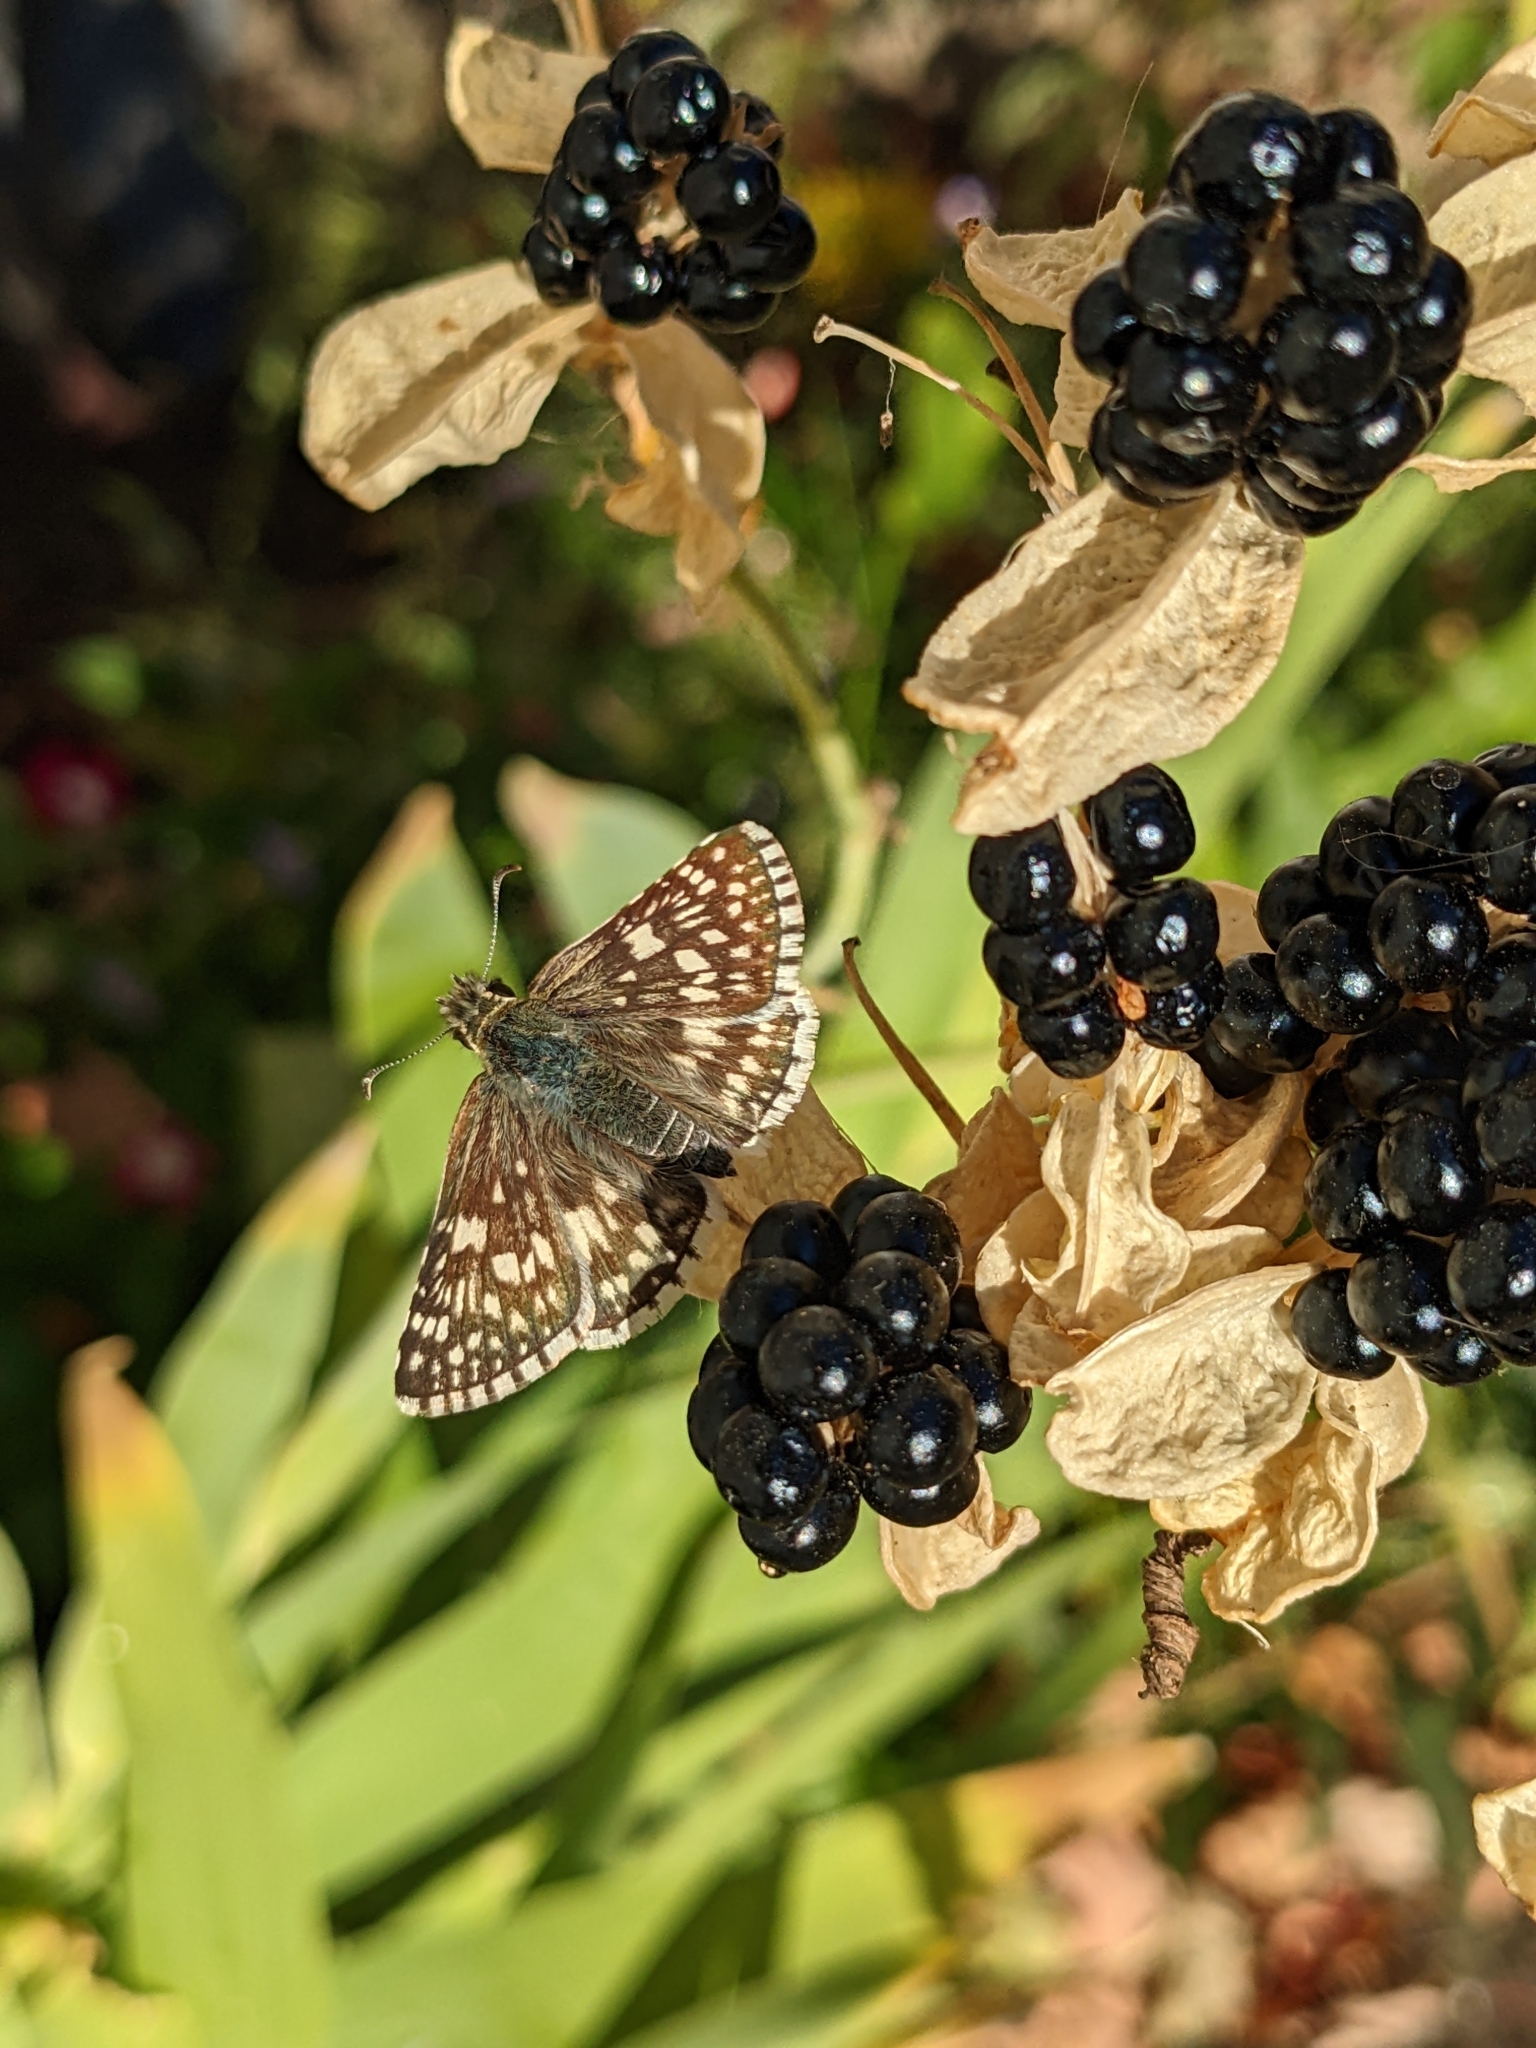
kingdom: Animalia
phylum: Arthropoda
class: Insecta
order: Lepidoptera
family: Hesperiidae
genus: Burnsius
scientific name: Burnsius communis
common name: Common checkered-skipper
